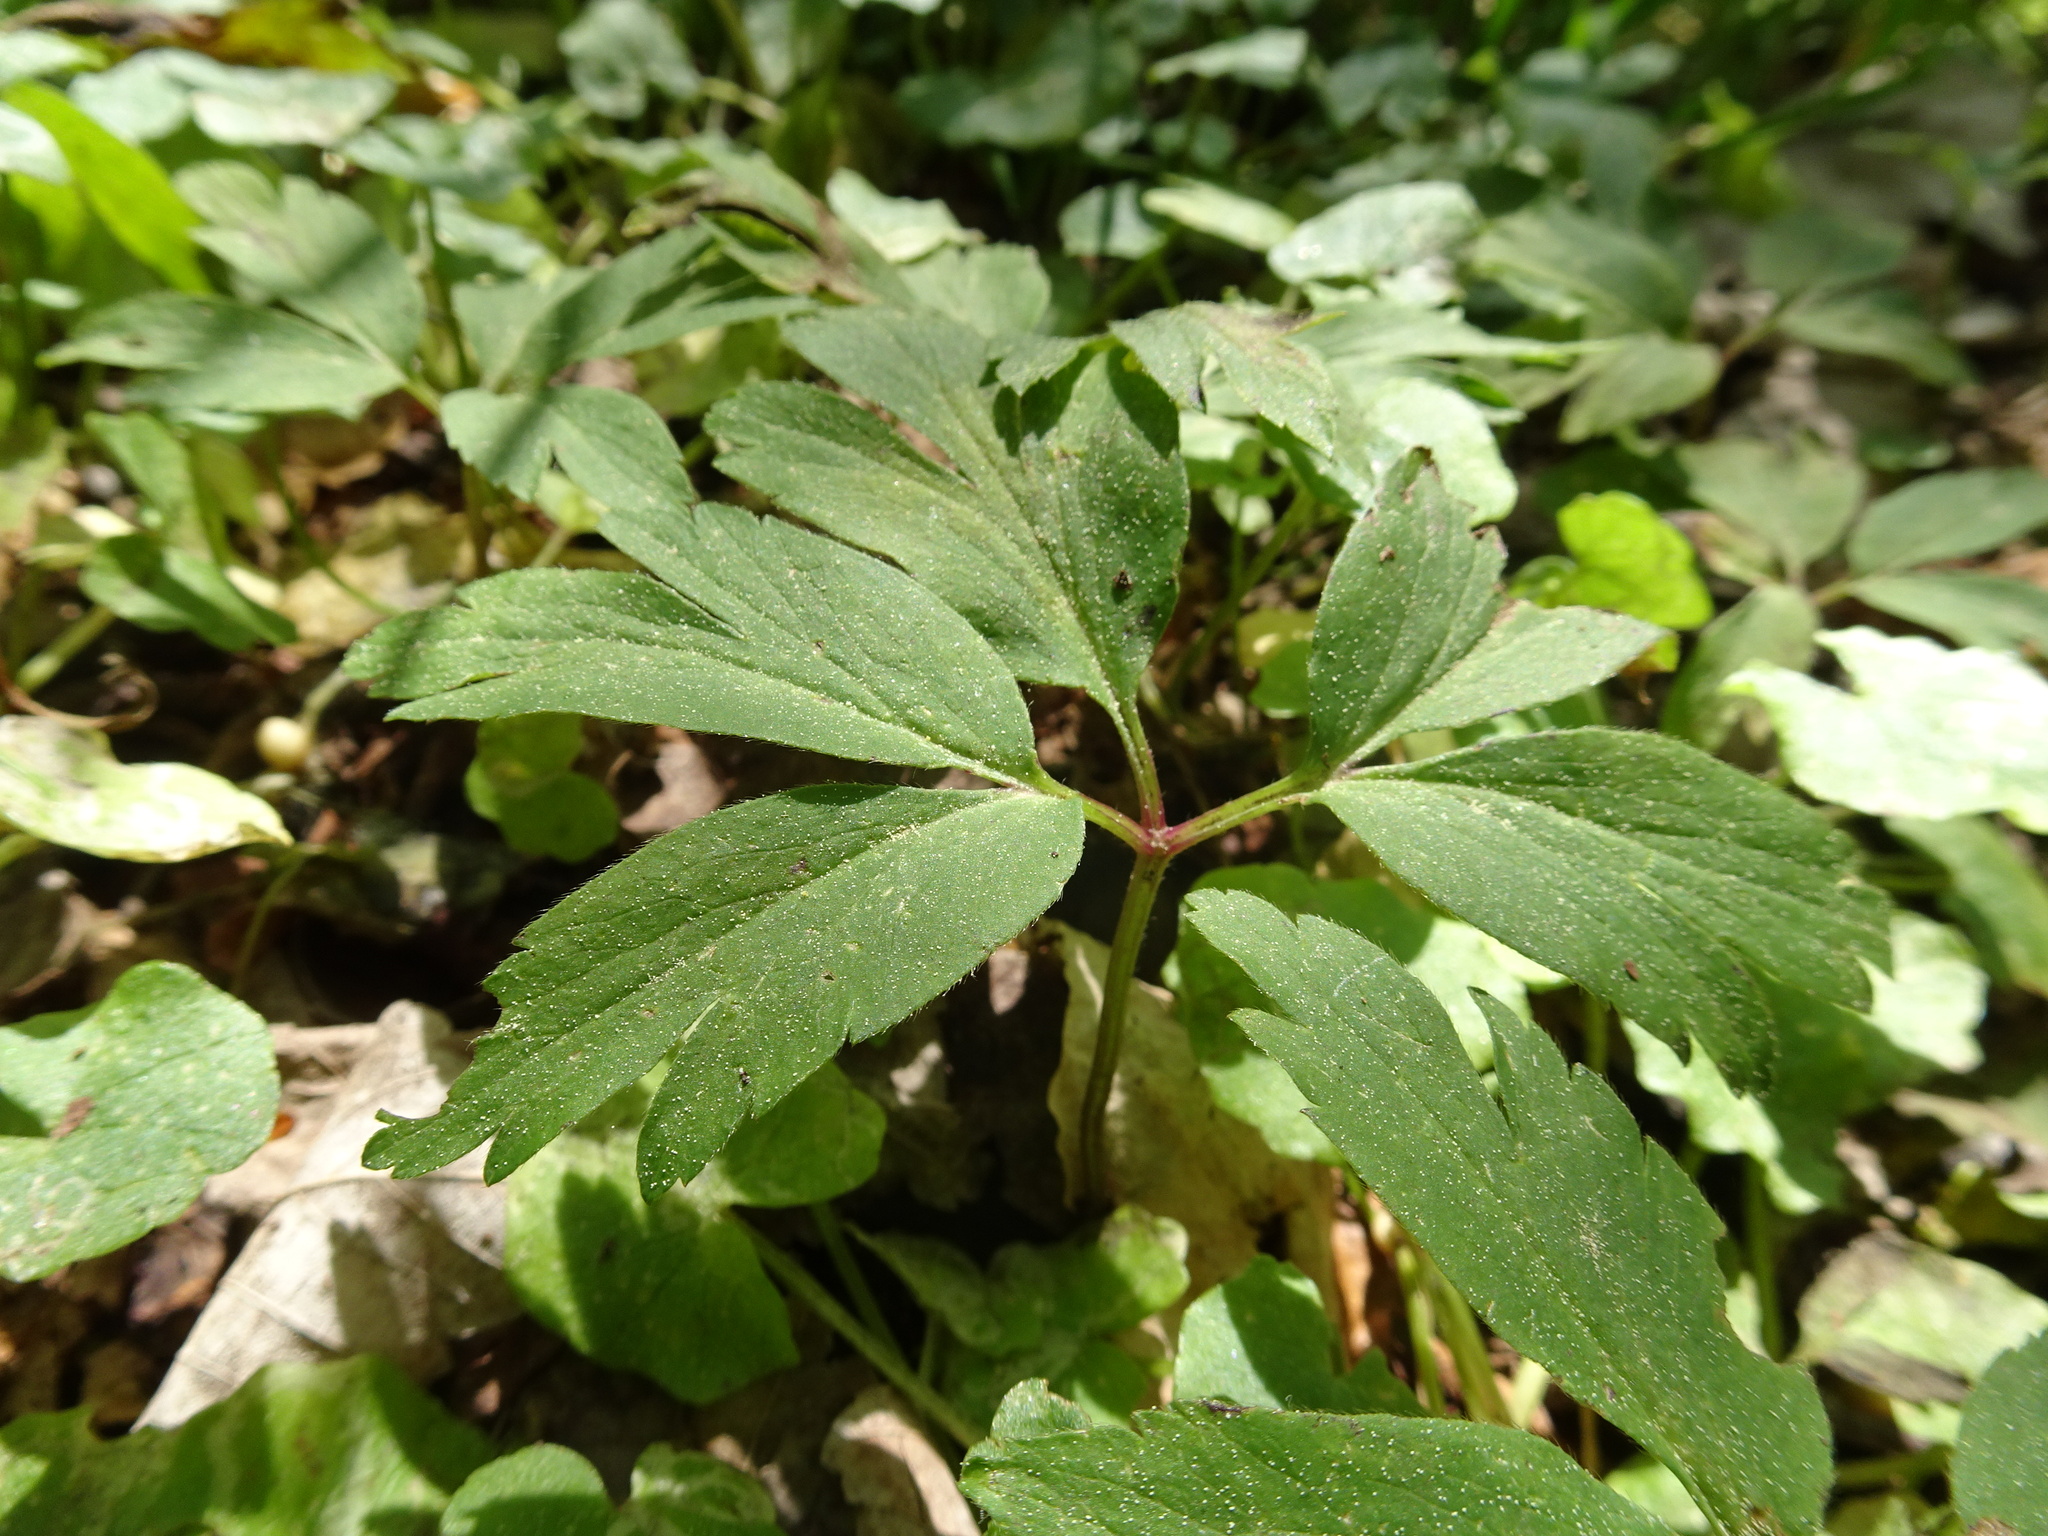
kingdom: Plantae
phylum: Tracheophyta
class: Magnoliopsida
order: Ranunculales
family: Ranunculaceae
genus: Anemone
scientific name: Anemone nemorosa
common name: Wood anemone
